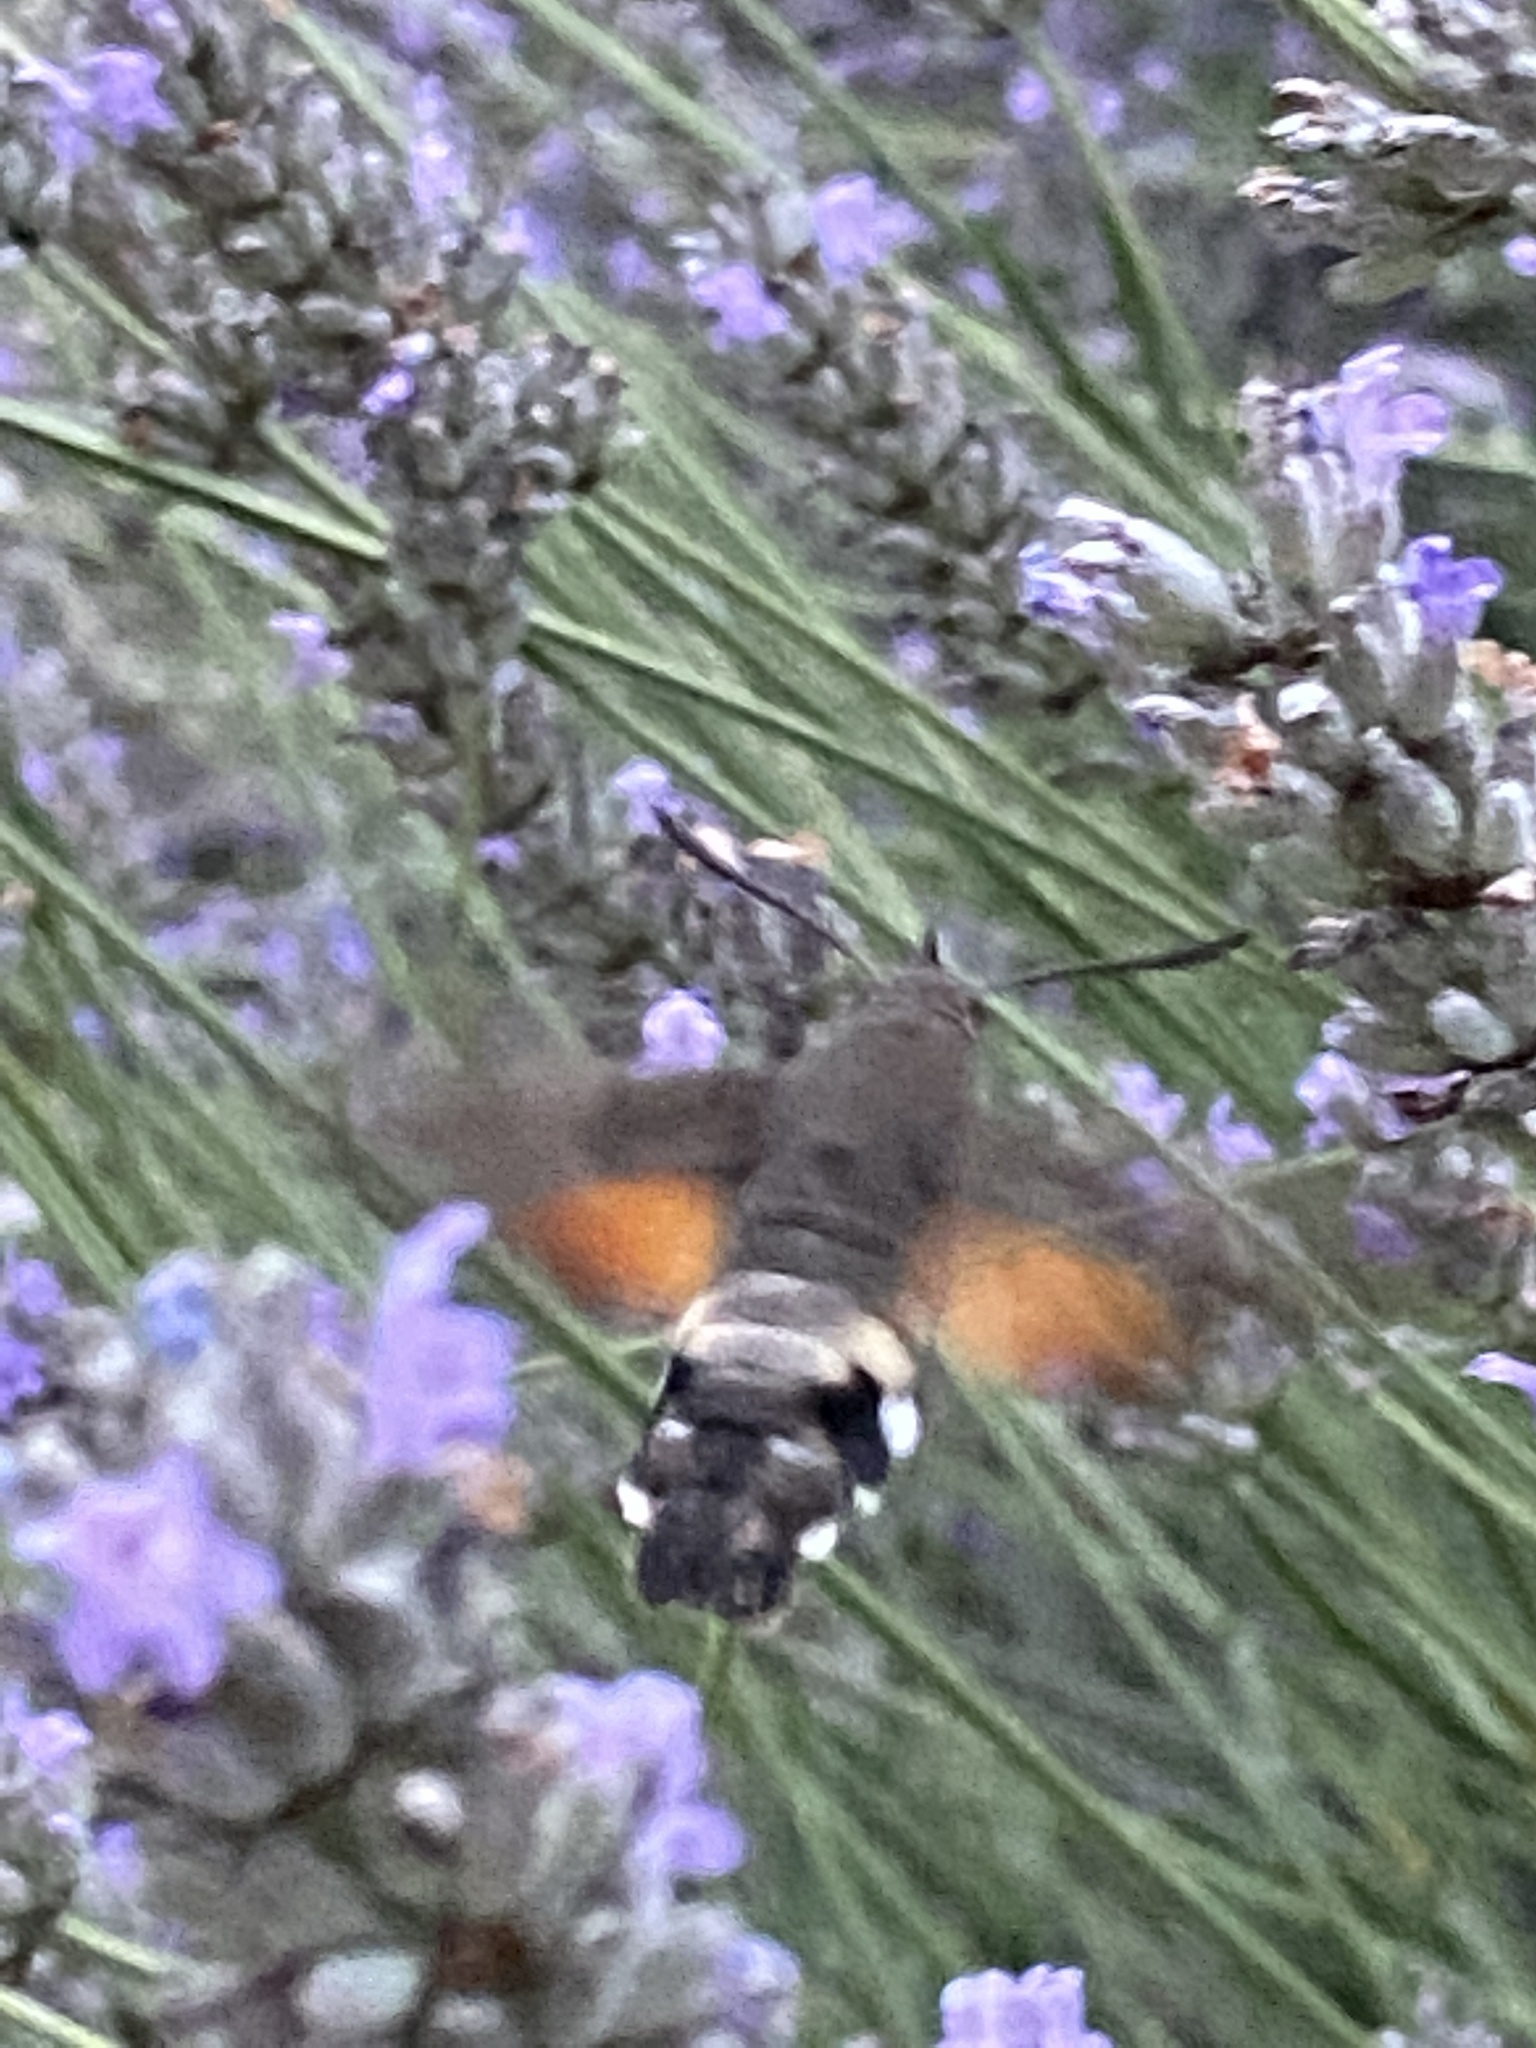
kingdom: Animalia
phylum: Arthropoda
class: Insecta
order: Lepidoptera
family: Sphingidae
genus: Macroglossum
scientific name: Macroglossum stellatarum
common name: Humming-bird hawk-moth
